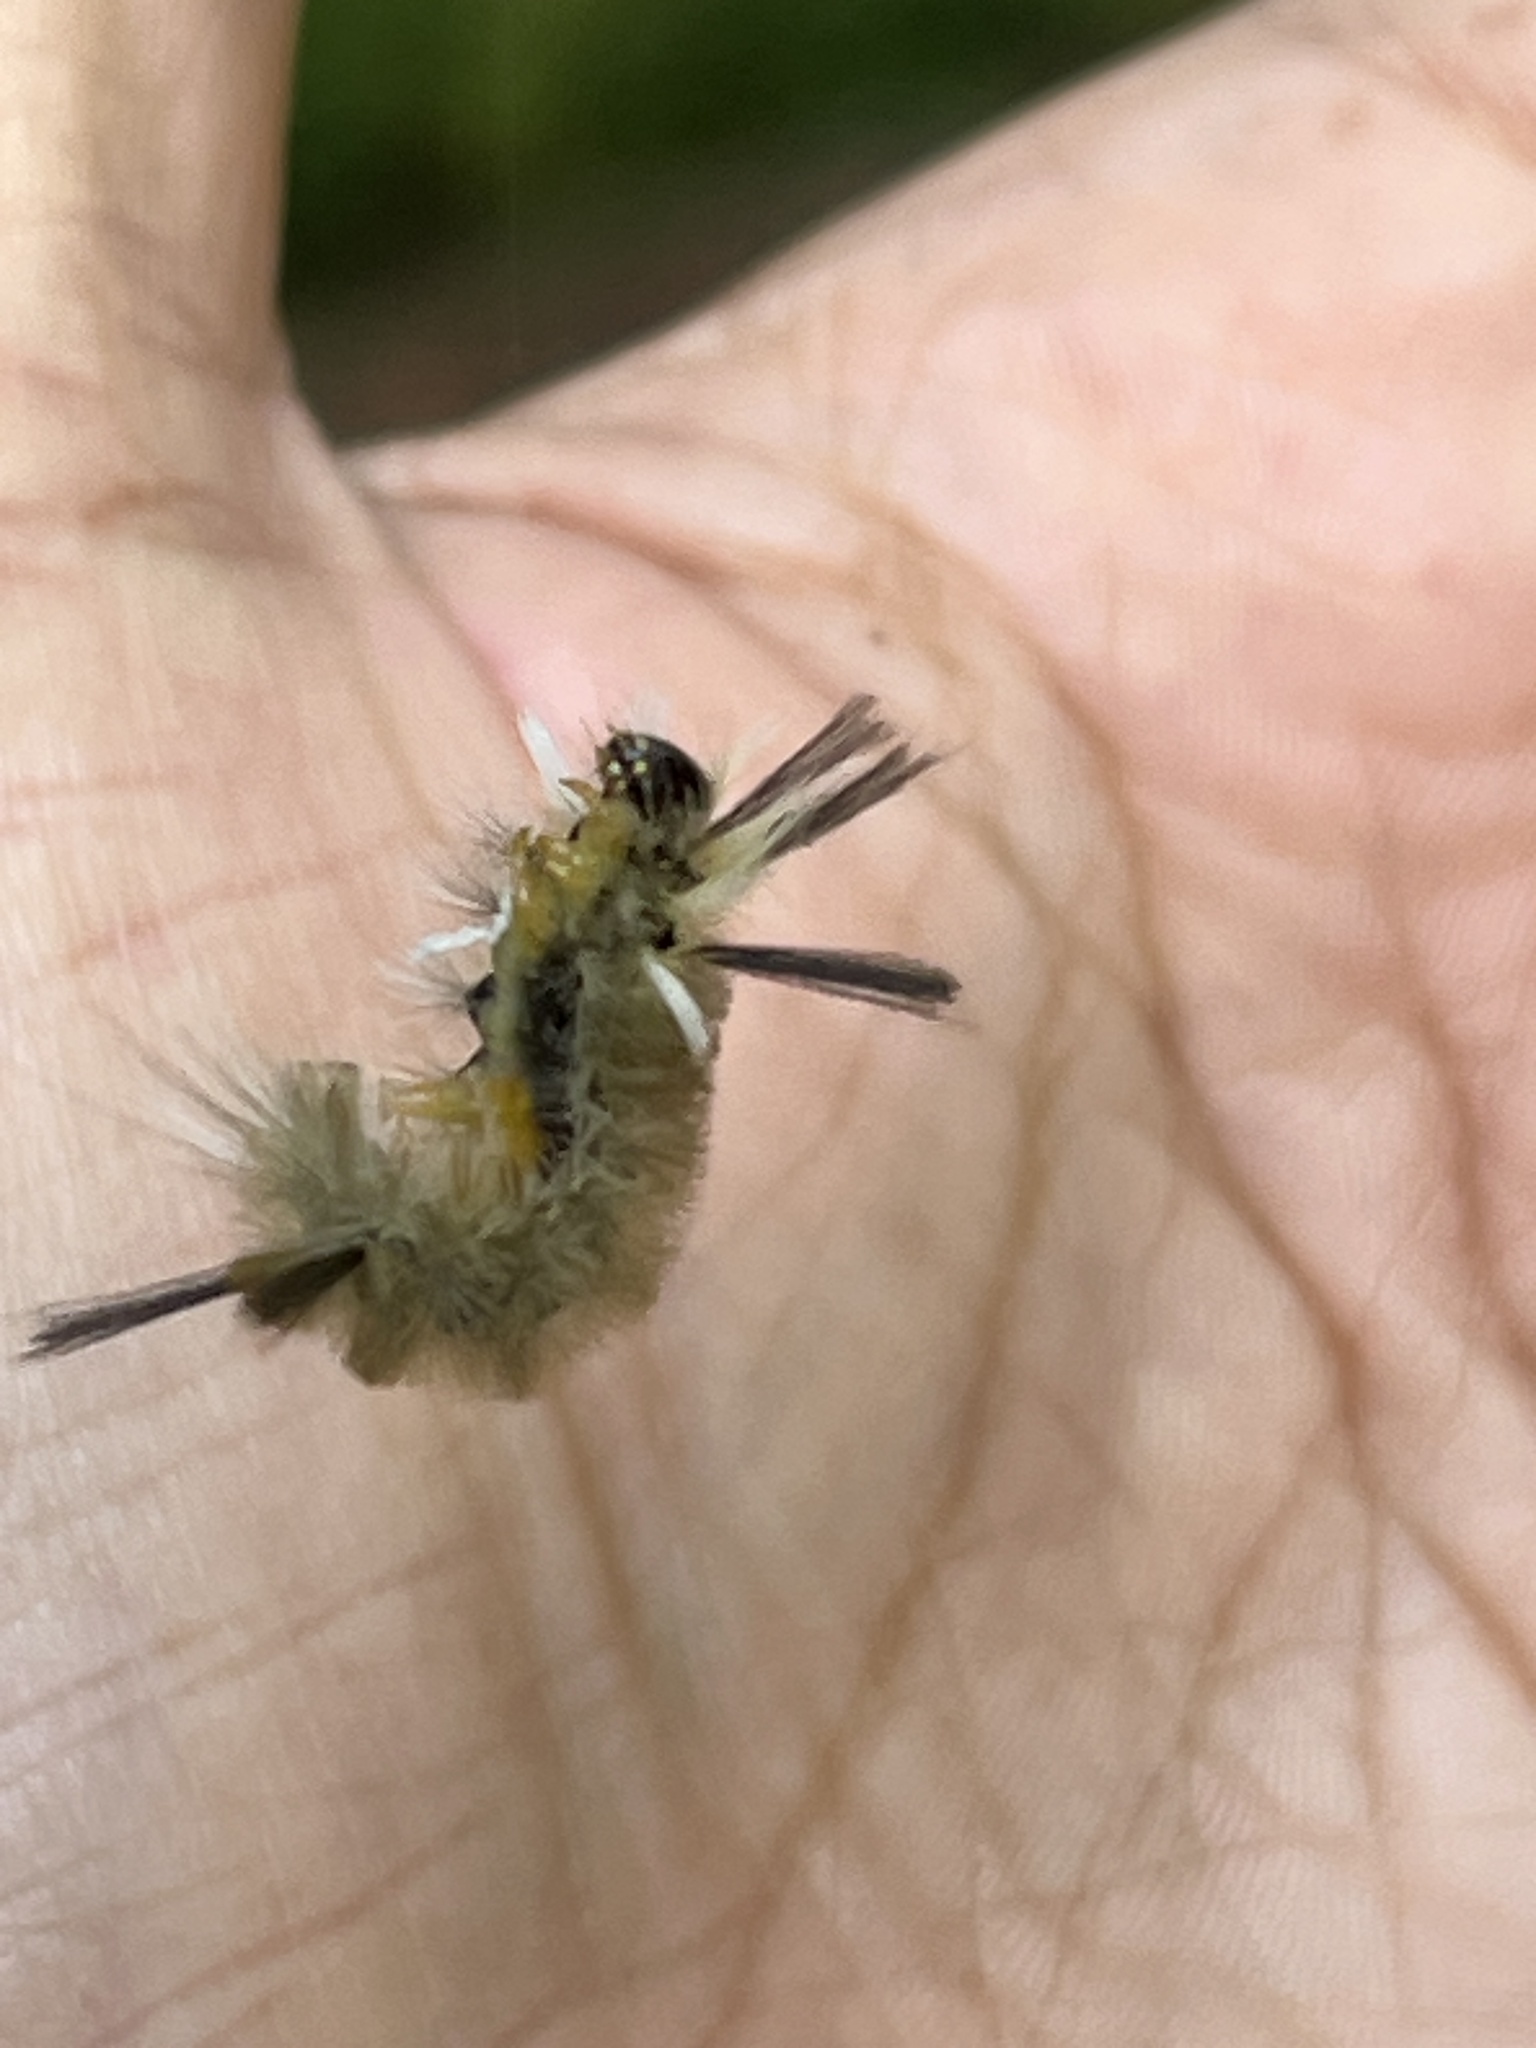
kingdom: Animalia
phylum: Arthropoda
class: Insecta
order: Lepidoptera
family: Erebidae
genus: Halysidota
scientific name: Halysidota tessellaris
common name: Banded tussock moth
